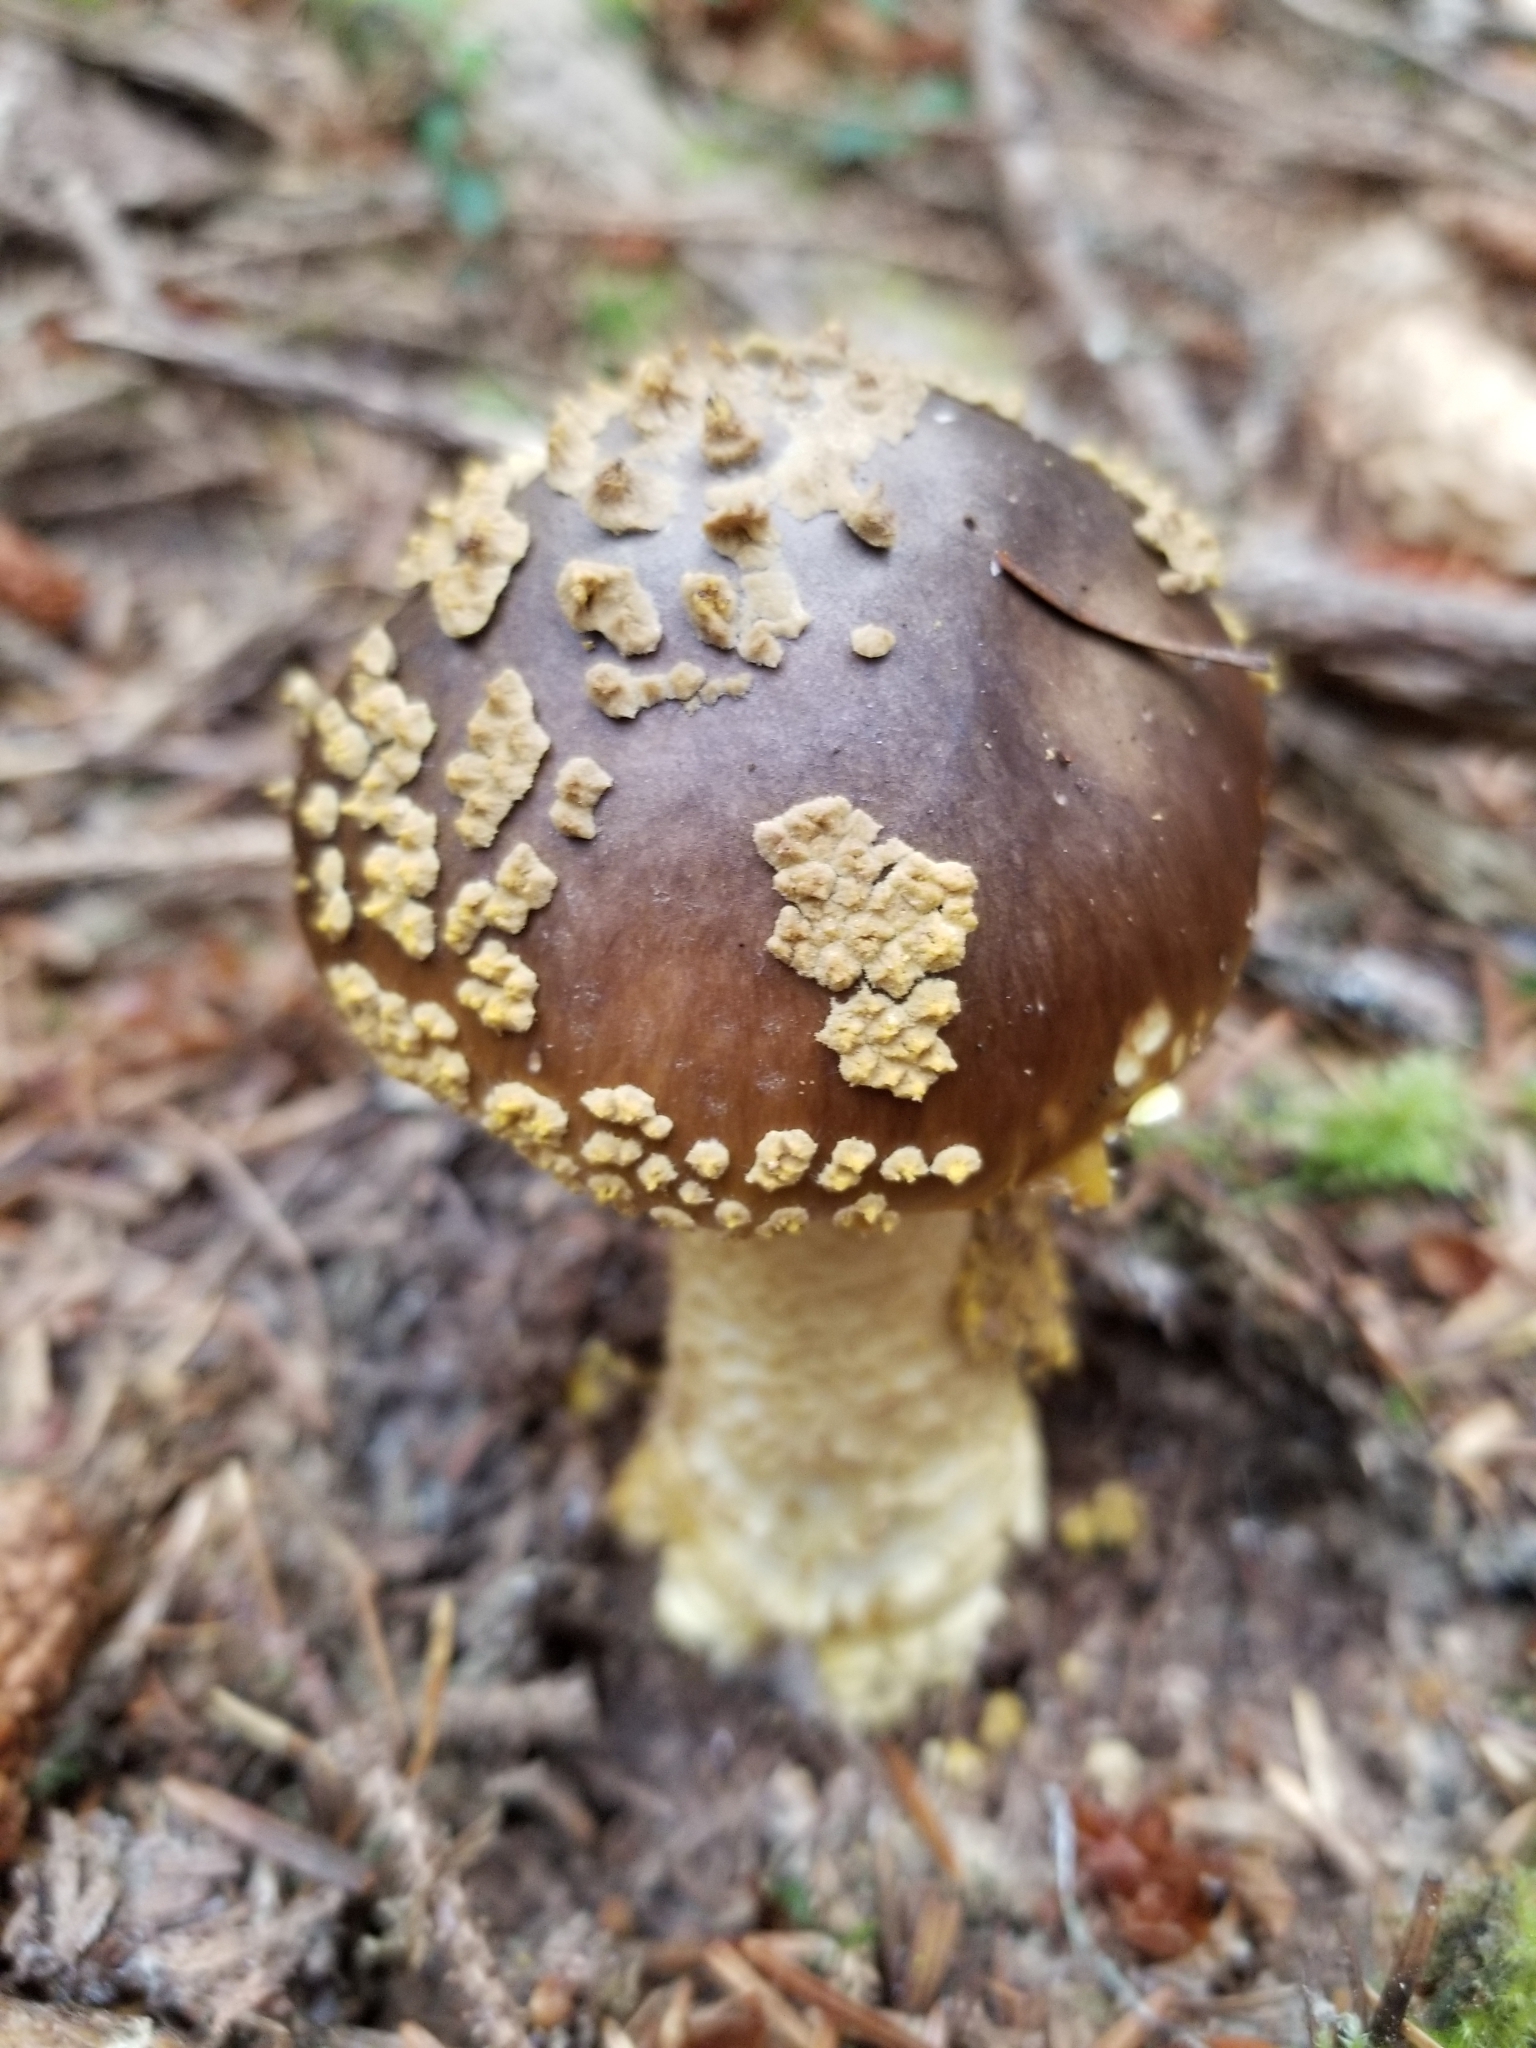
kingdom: Fungi
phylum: Basidiomycota
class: Agaricomycetes
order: Agaricales
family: Amanitaceae
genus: Amanita
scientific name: Amanita augusta
